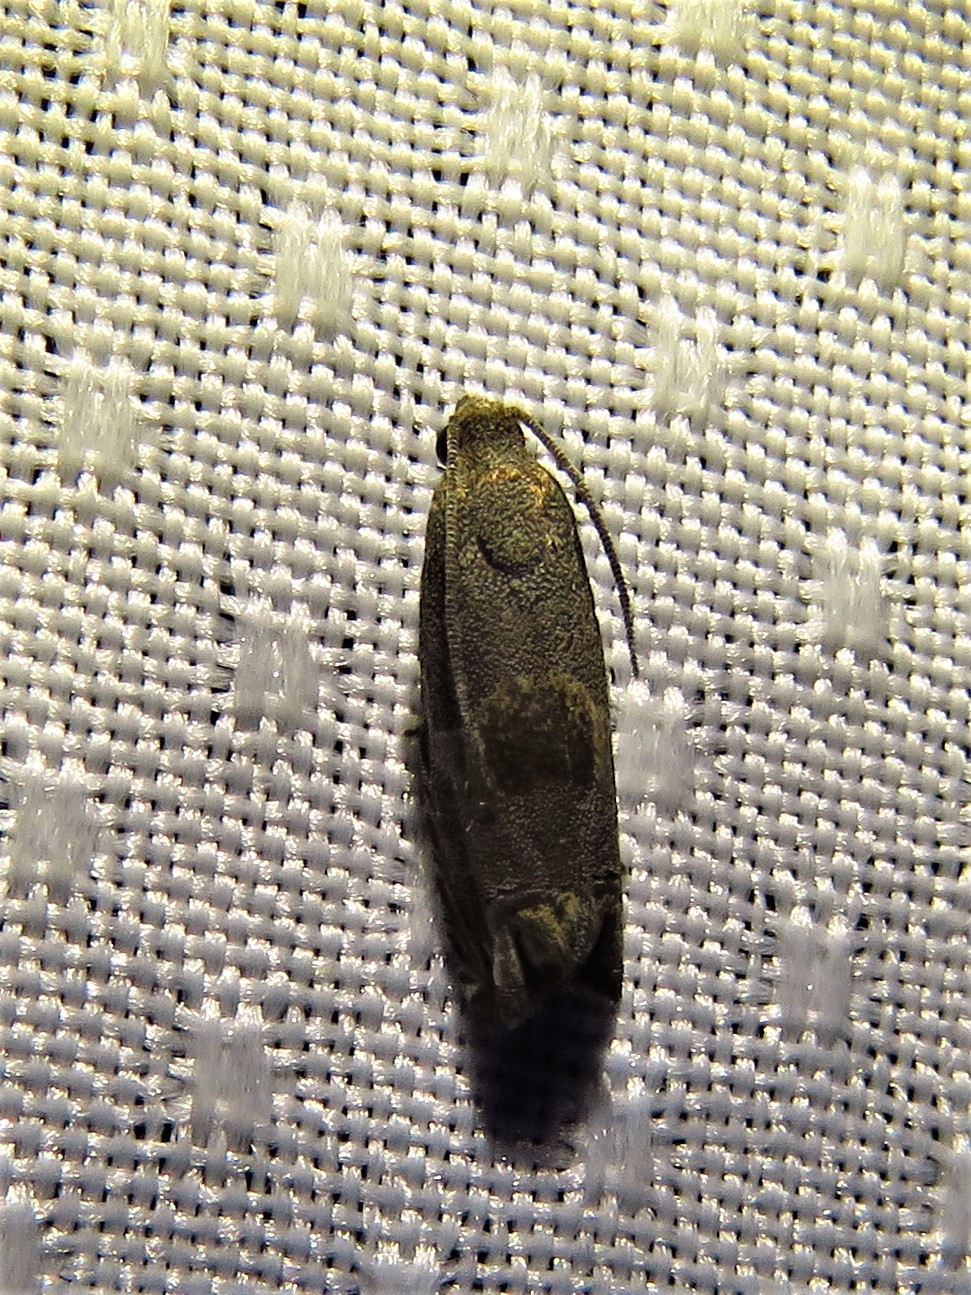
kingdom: Animalia
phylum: Arthropoda
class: Insecta
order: Lepidoptera
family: Tortricidae
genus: Epiblema
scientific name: Epiblema strenuana
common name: Ragweed borer moth
